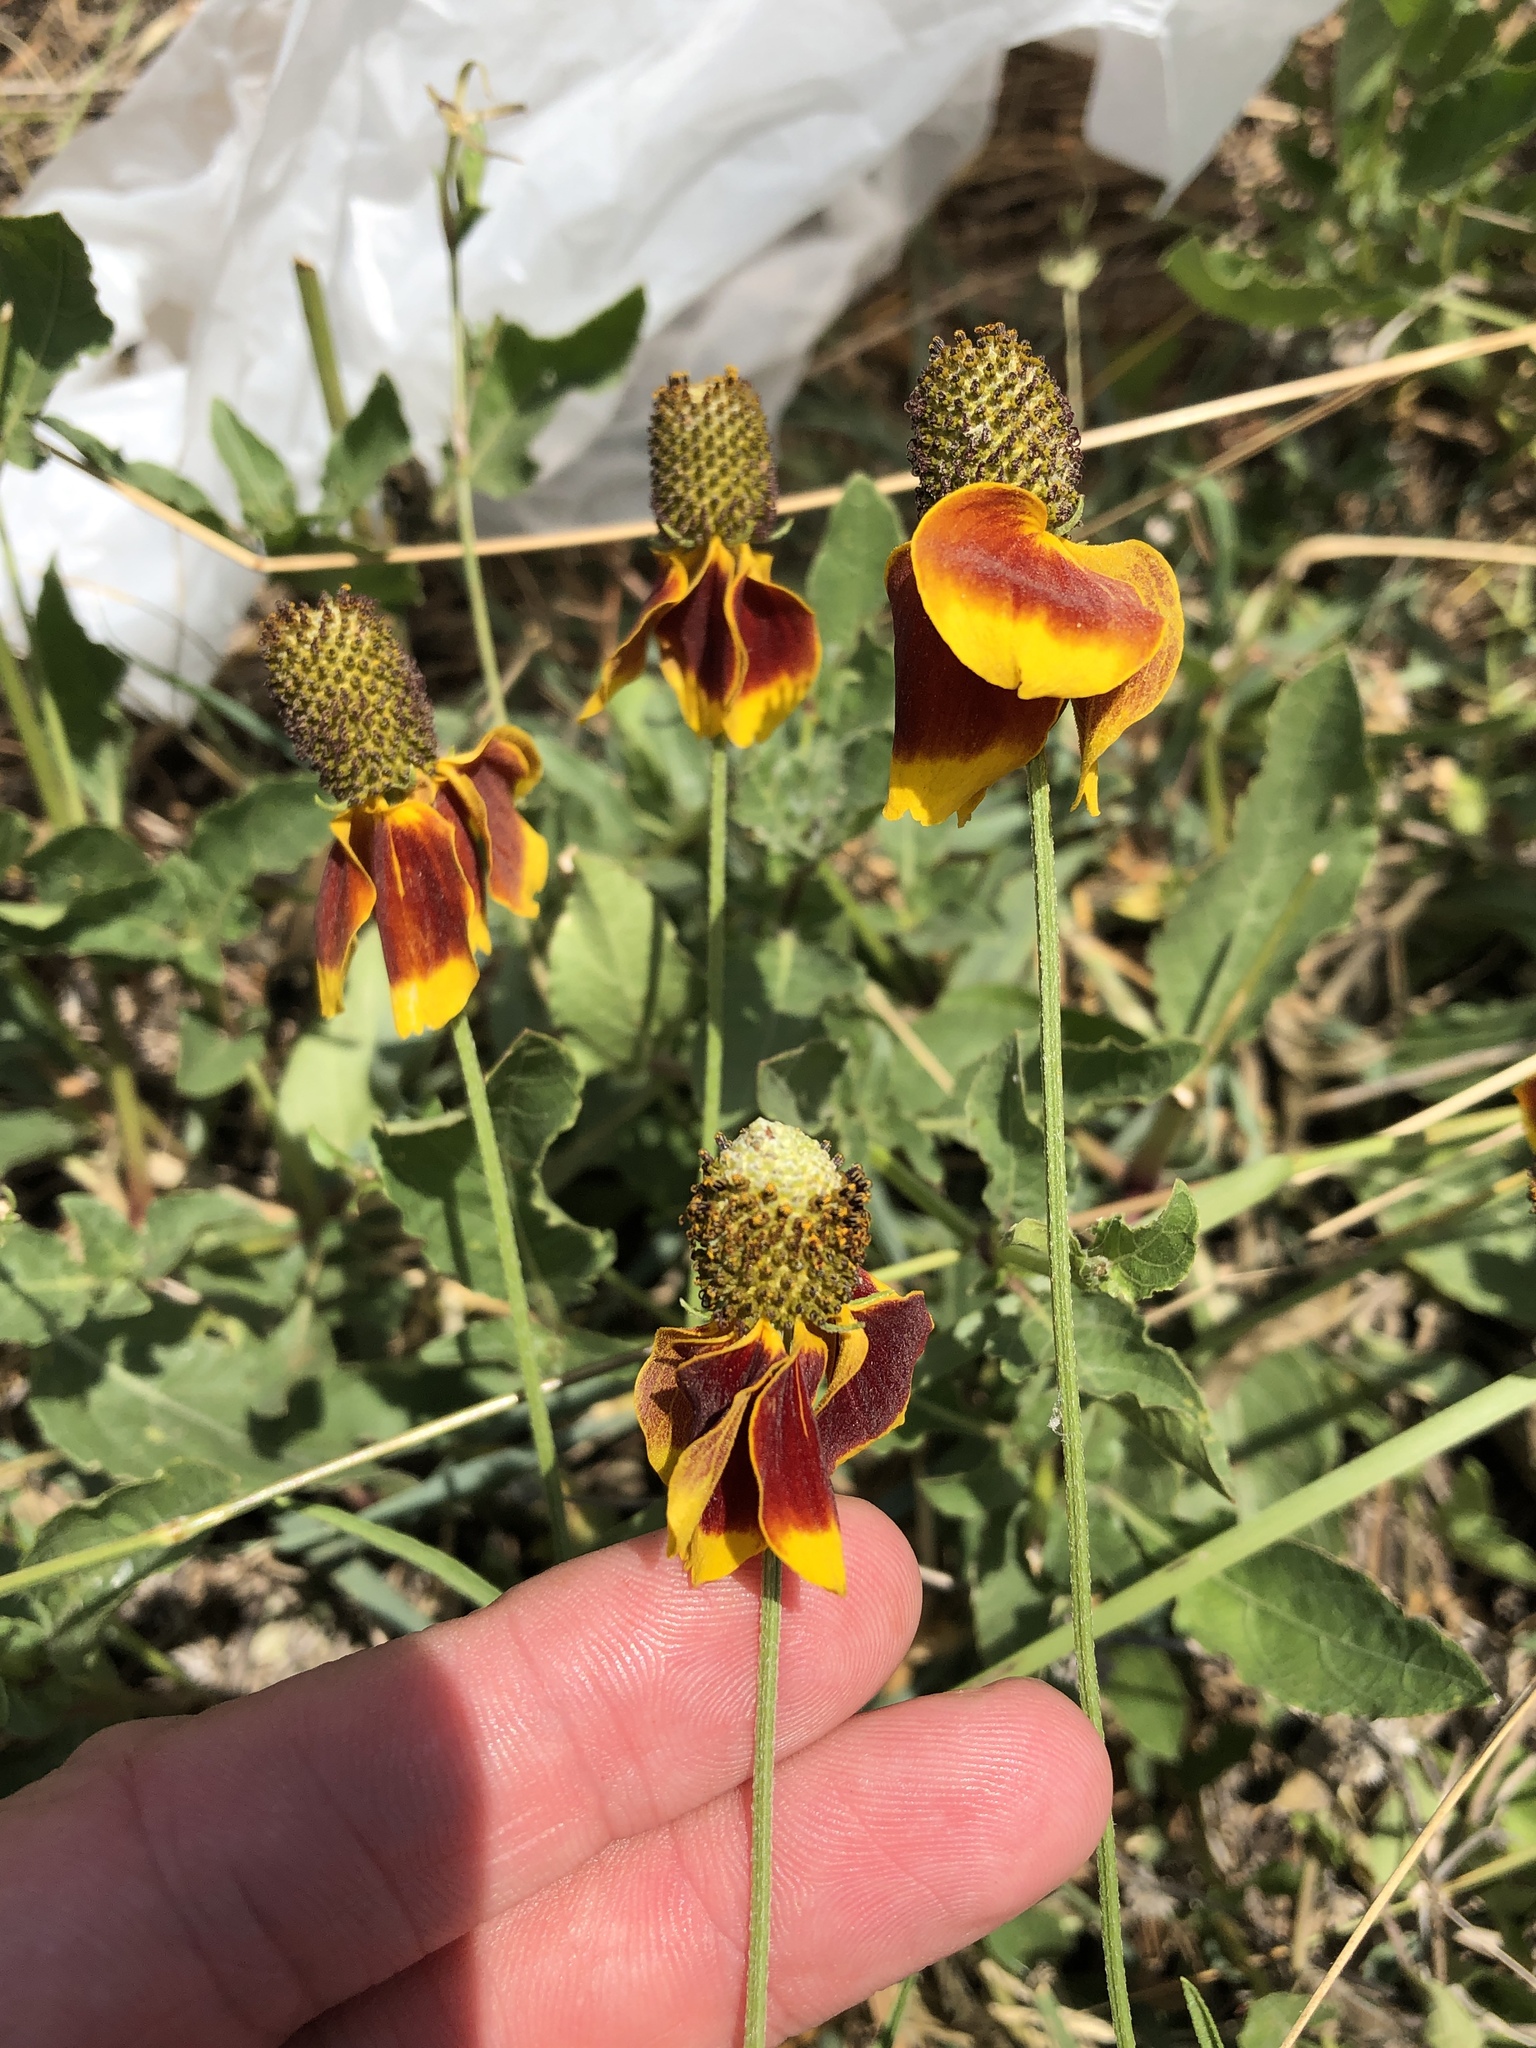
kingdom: Plantae
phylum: Tracheophyta
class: Magnoliopsida
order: Asterales
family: Asteraceae
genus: Ratibida
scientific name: Ratibida columnifera
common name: Prairie coneflower
